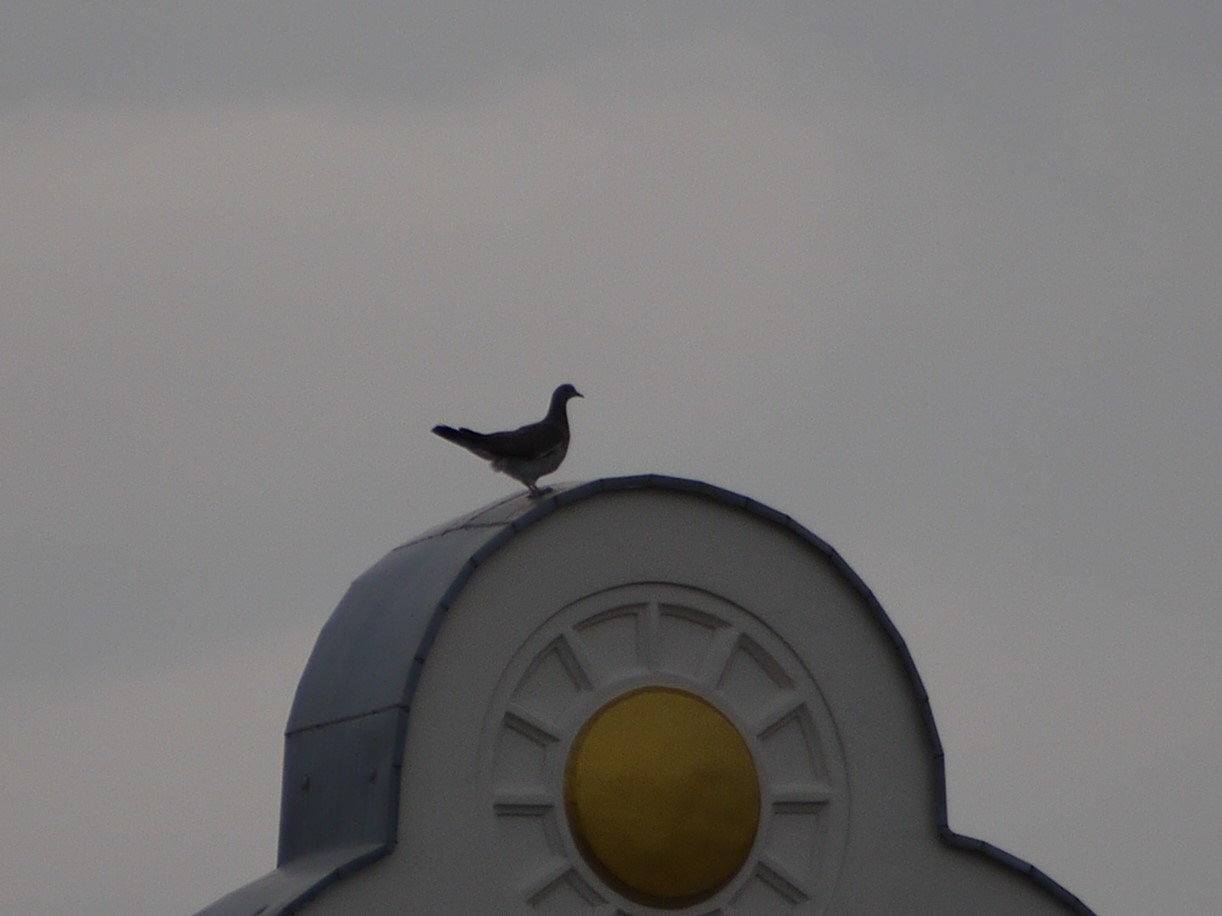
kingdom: Animalia
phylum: Chordata
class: Aves
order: Columbiformes
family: Columbidae
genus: Columba
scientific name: Columba palumbus
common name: Common wood pigeon
